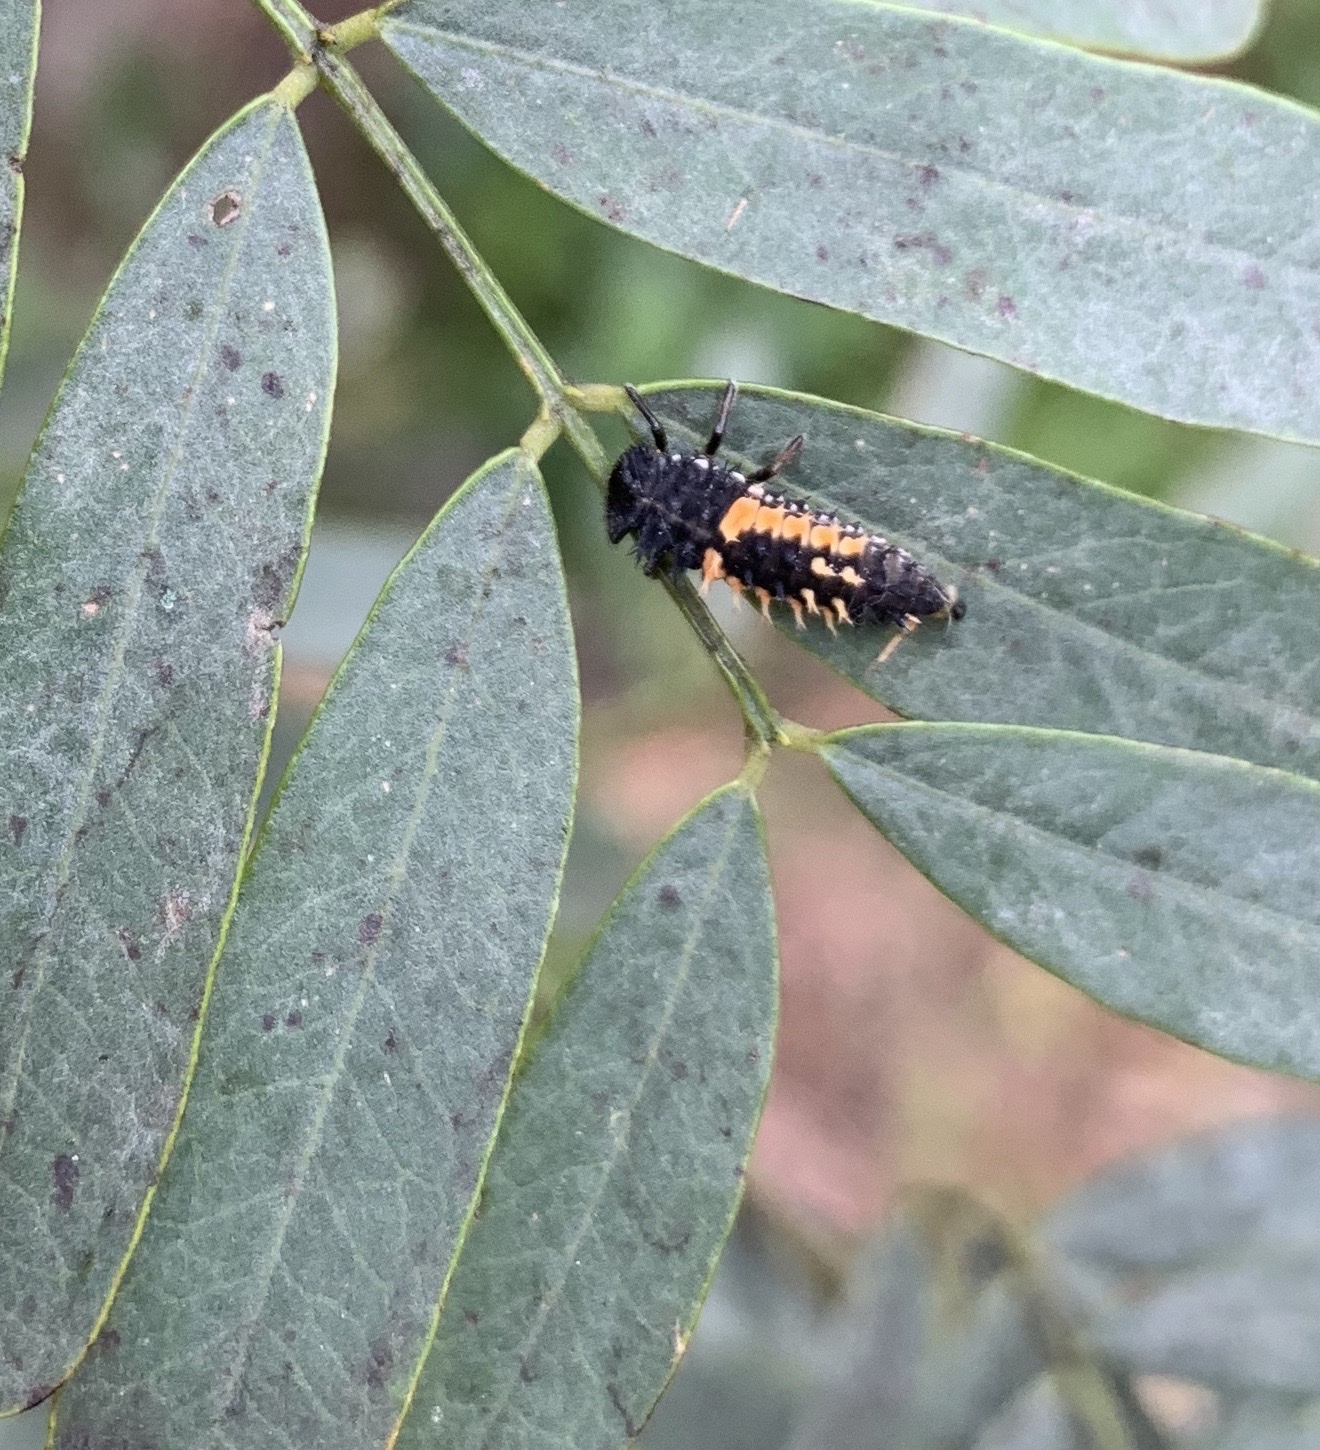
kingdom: Animalia
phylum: Arthropoda
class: Insecta
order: Coleoptera
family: Coccinellidae
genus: Harmonia
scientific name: Harmonia axyridis
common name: Harlequin ladybird
